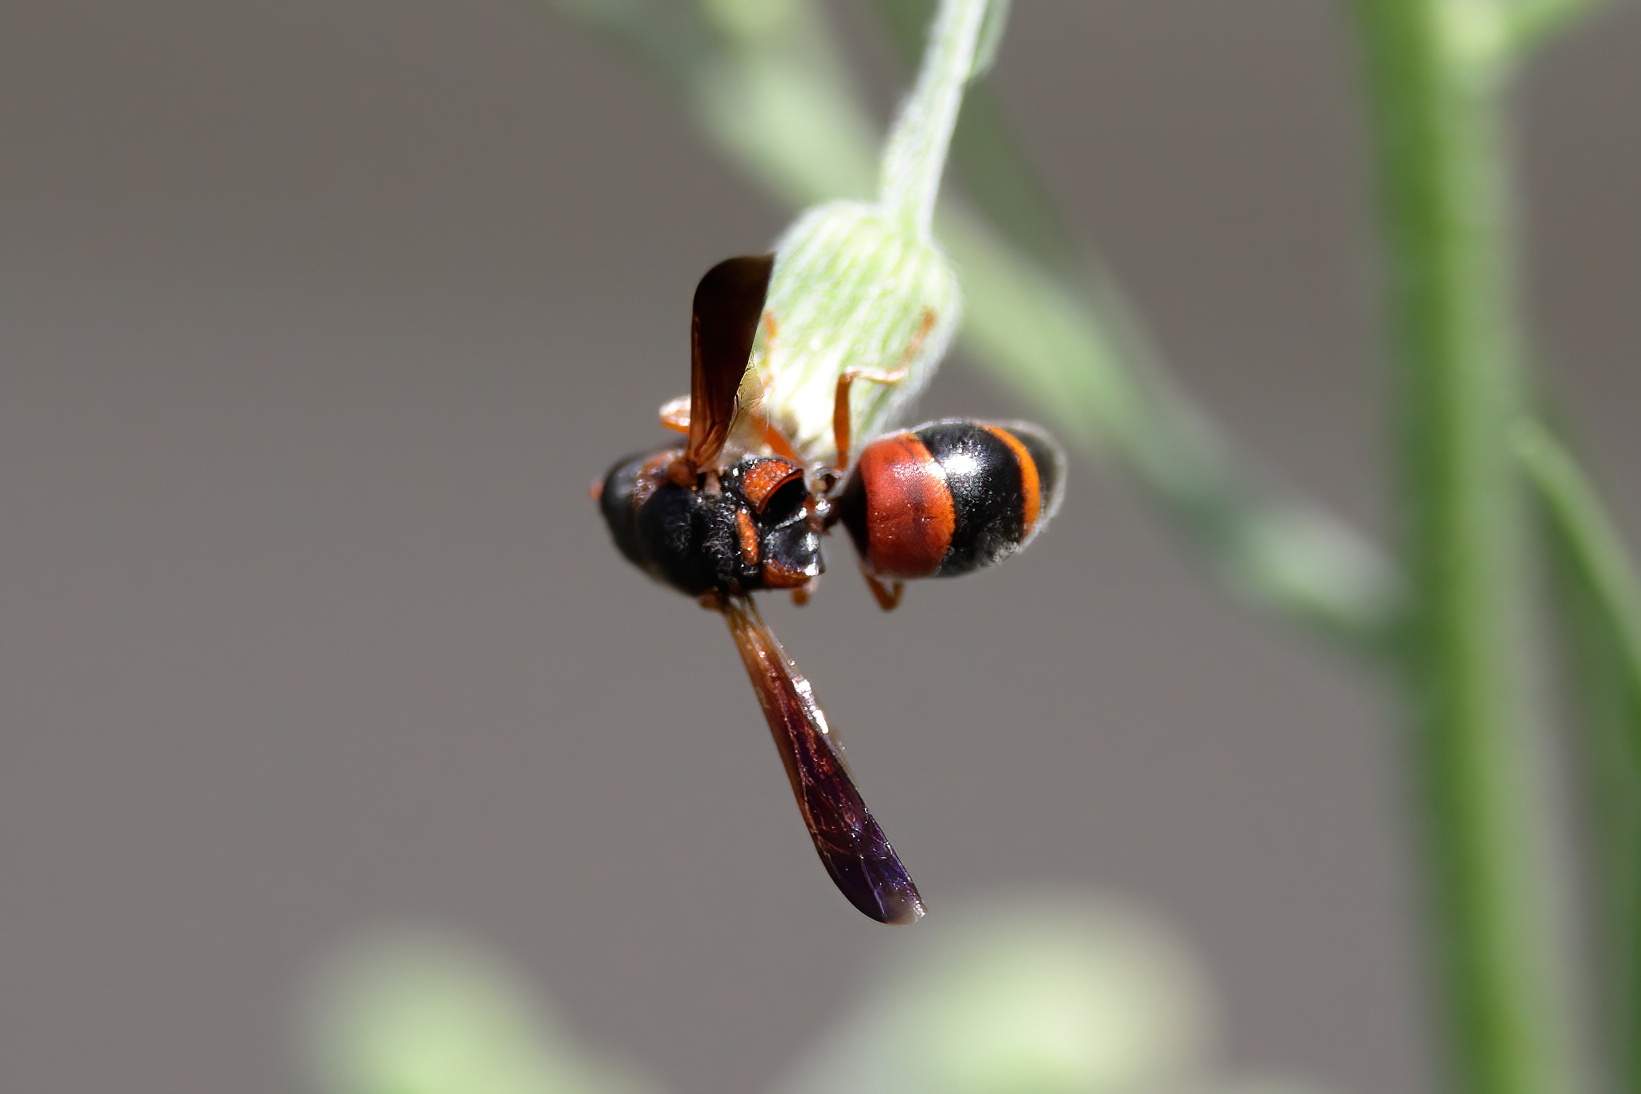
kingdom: Animalia
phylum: Arthropoda
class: Insecta
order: Hymenoptera
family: Eumenidae
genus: Pachodynerus
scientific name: Pachodynerus erynnis
